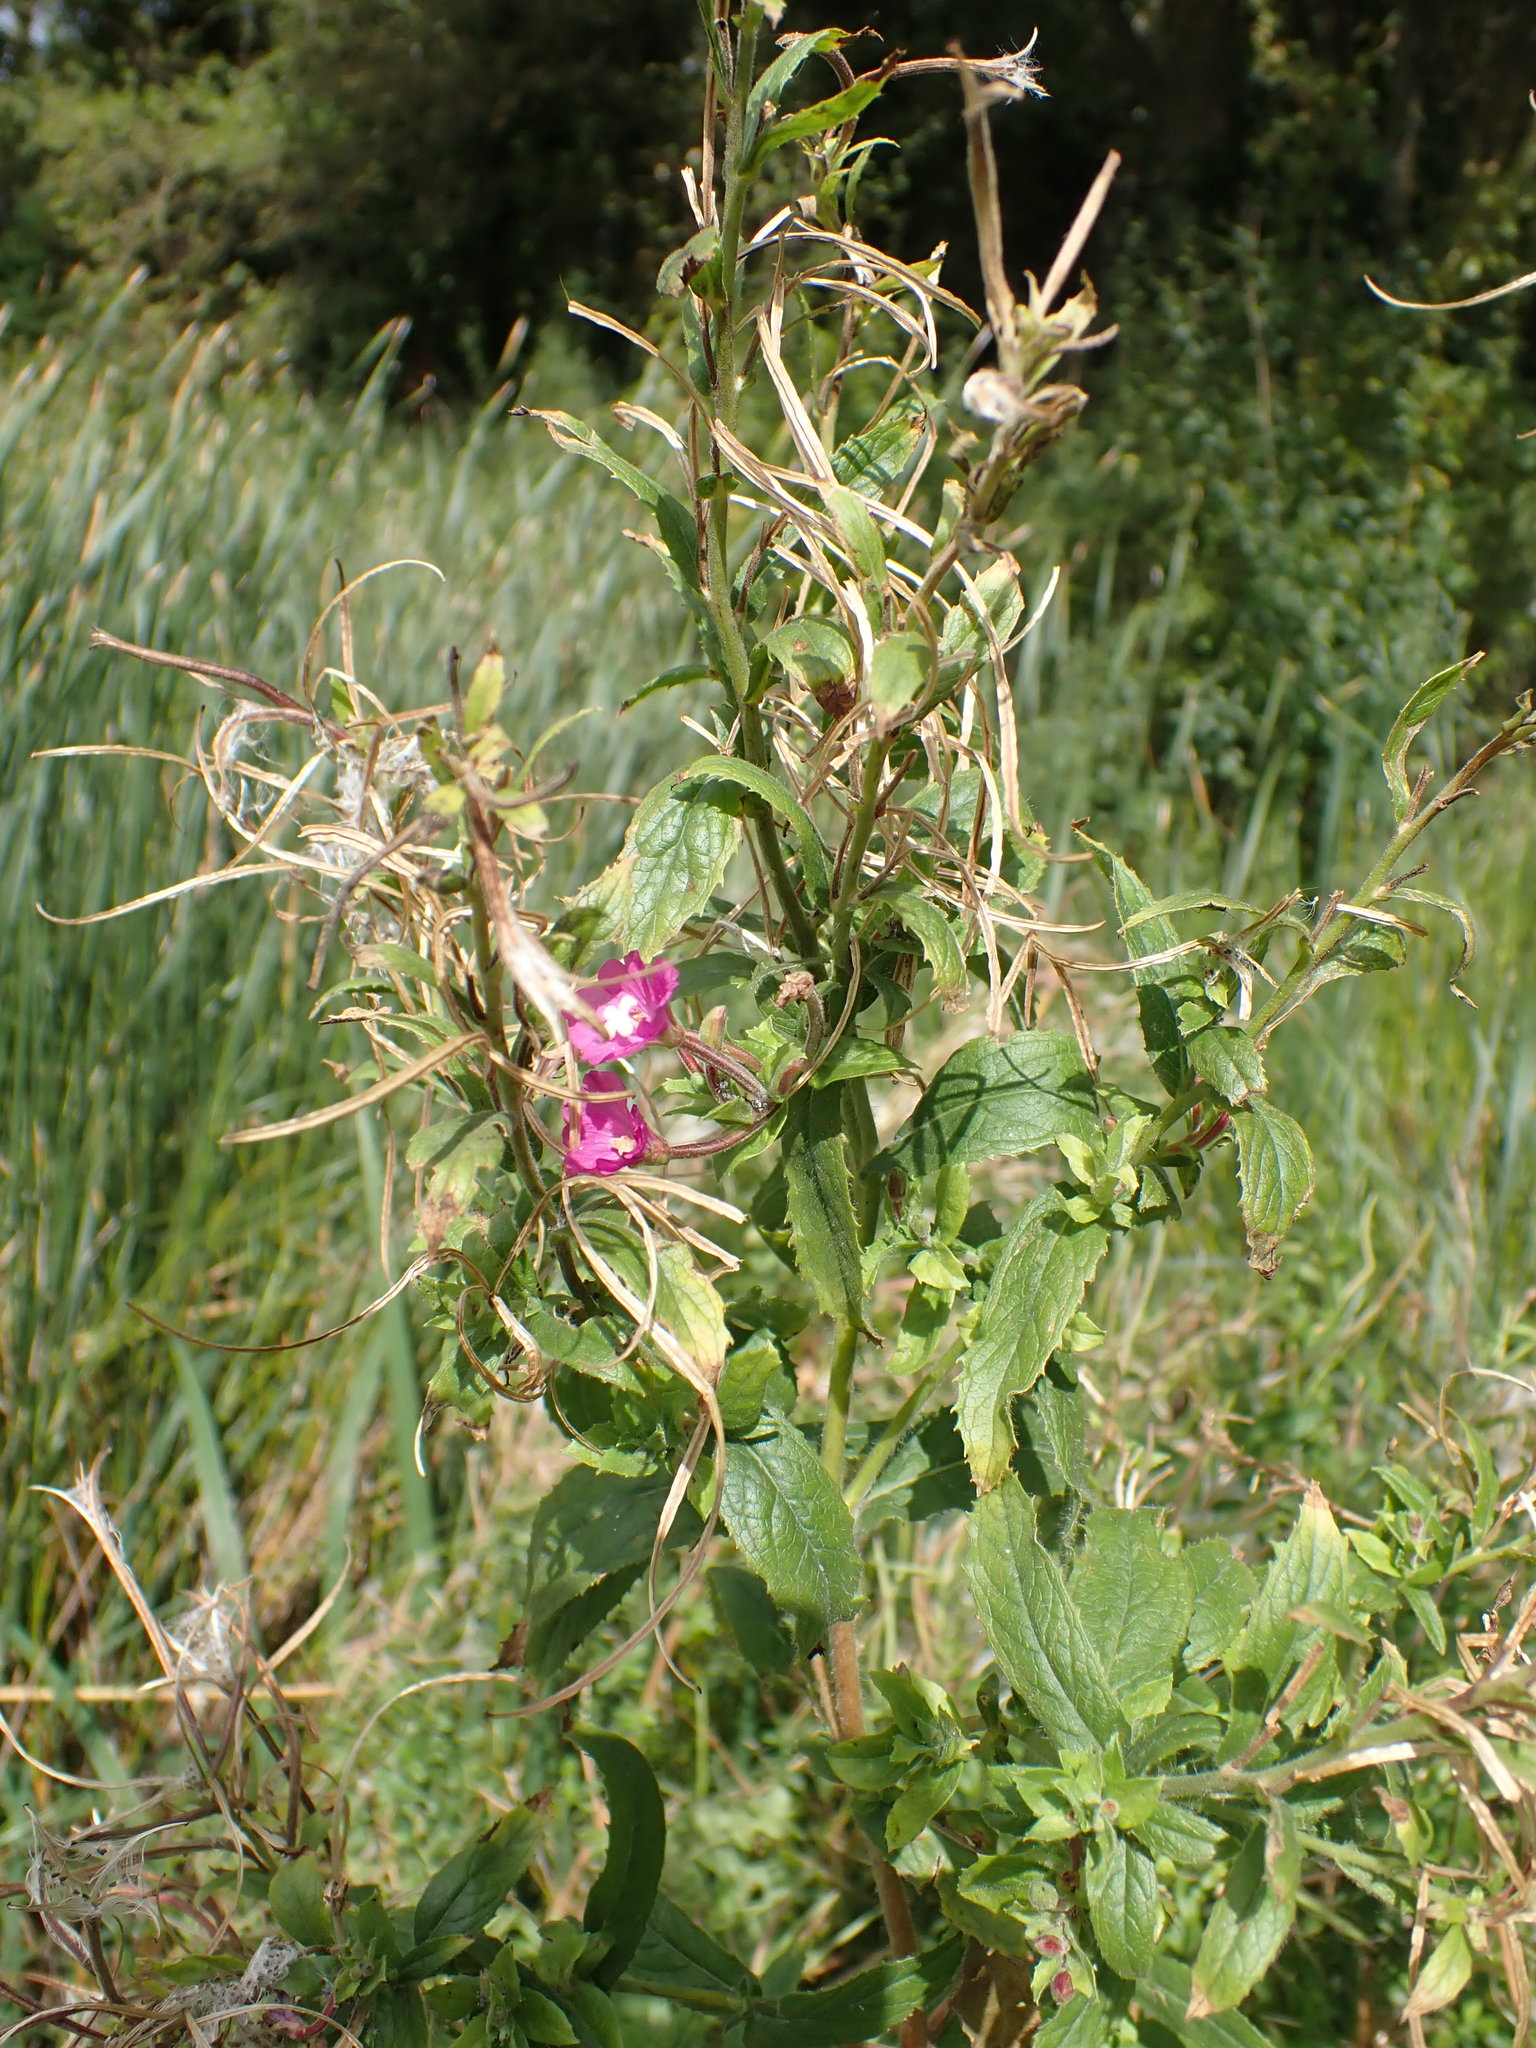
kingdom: Plantae
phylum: Tracheophyta
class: Magnoliopsida
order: Myrtales
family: Onagraceae
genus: Epilobium
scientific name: Epilobium hirsutum
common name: Great willowherb
